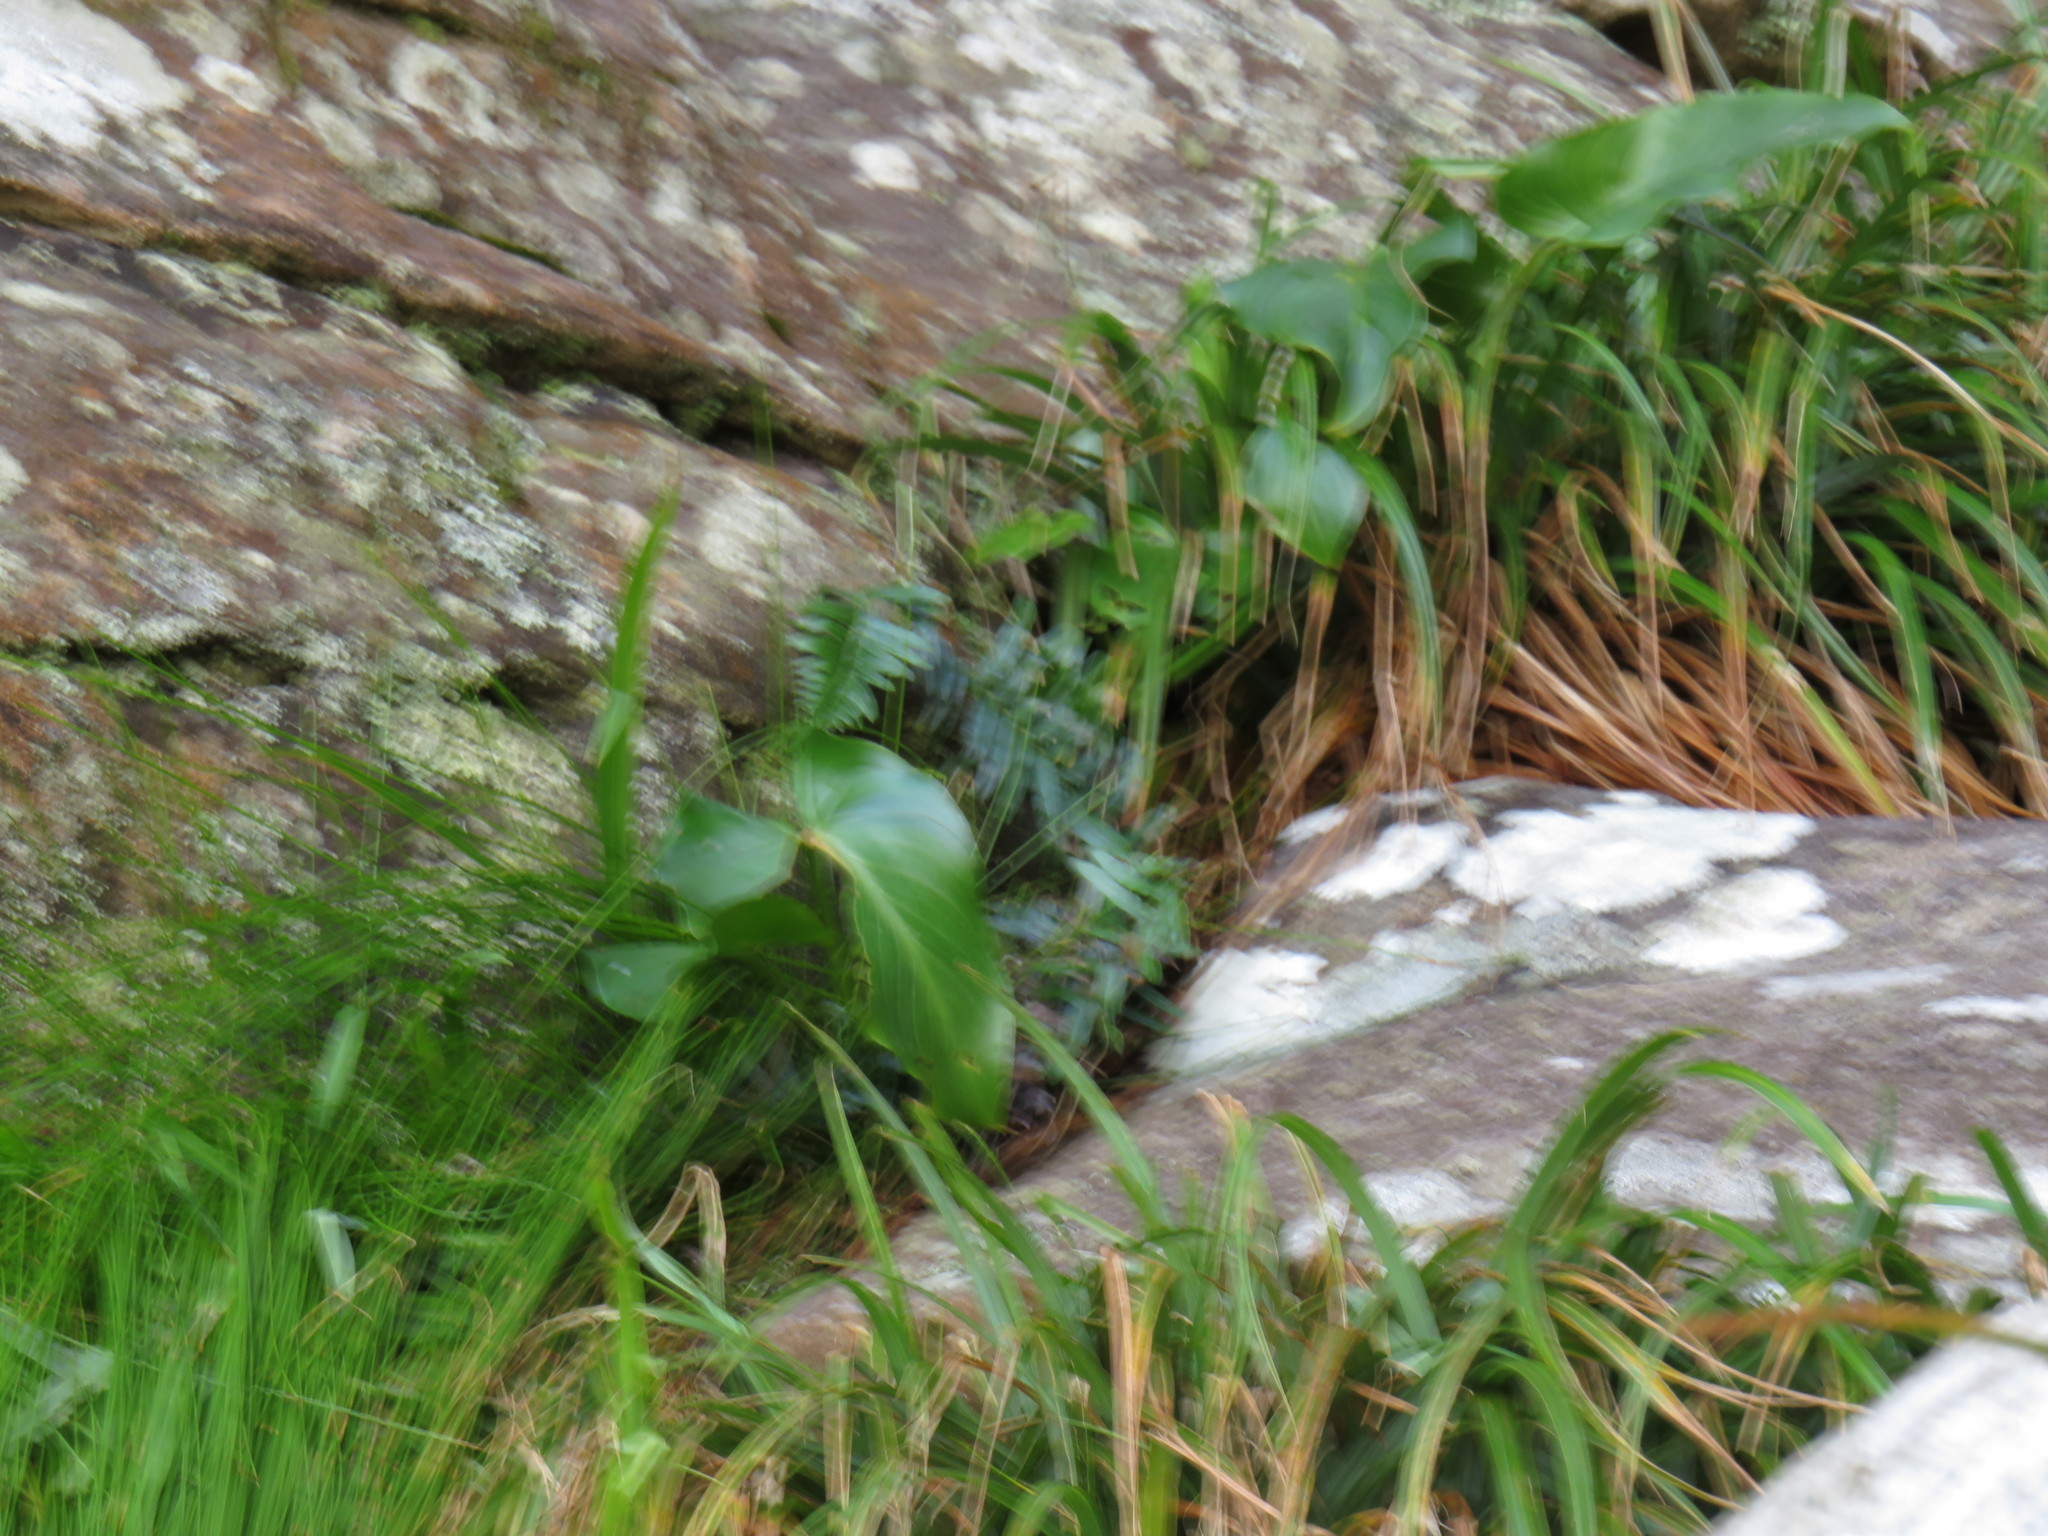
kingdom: Plantae
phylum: Tracheophyta
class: Liliopsida
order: Alismatales
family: Araceae
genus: Zantedeschia
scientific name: Zantedeschia aethiopica
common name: Altar-lily
